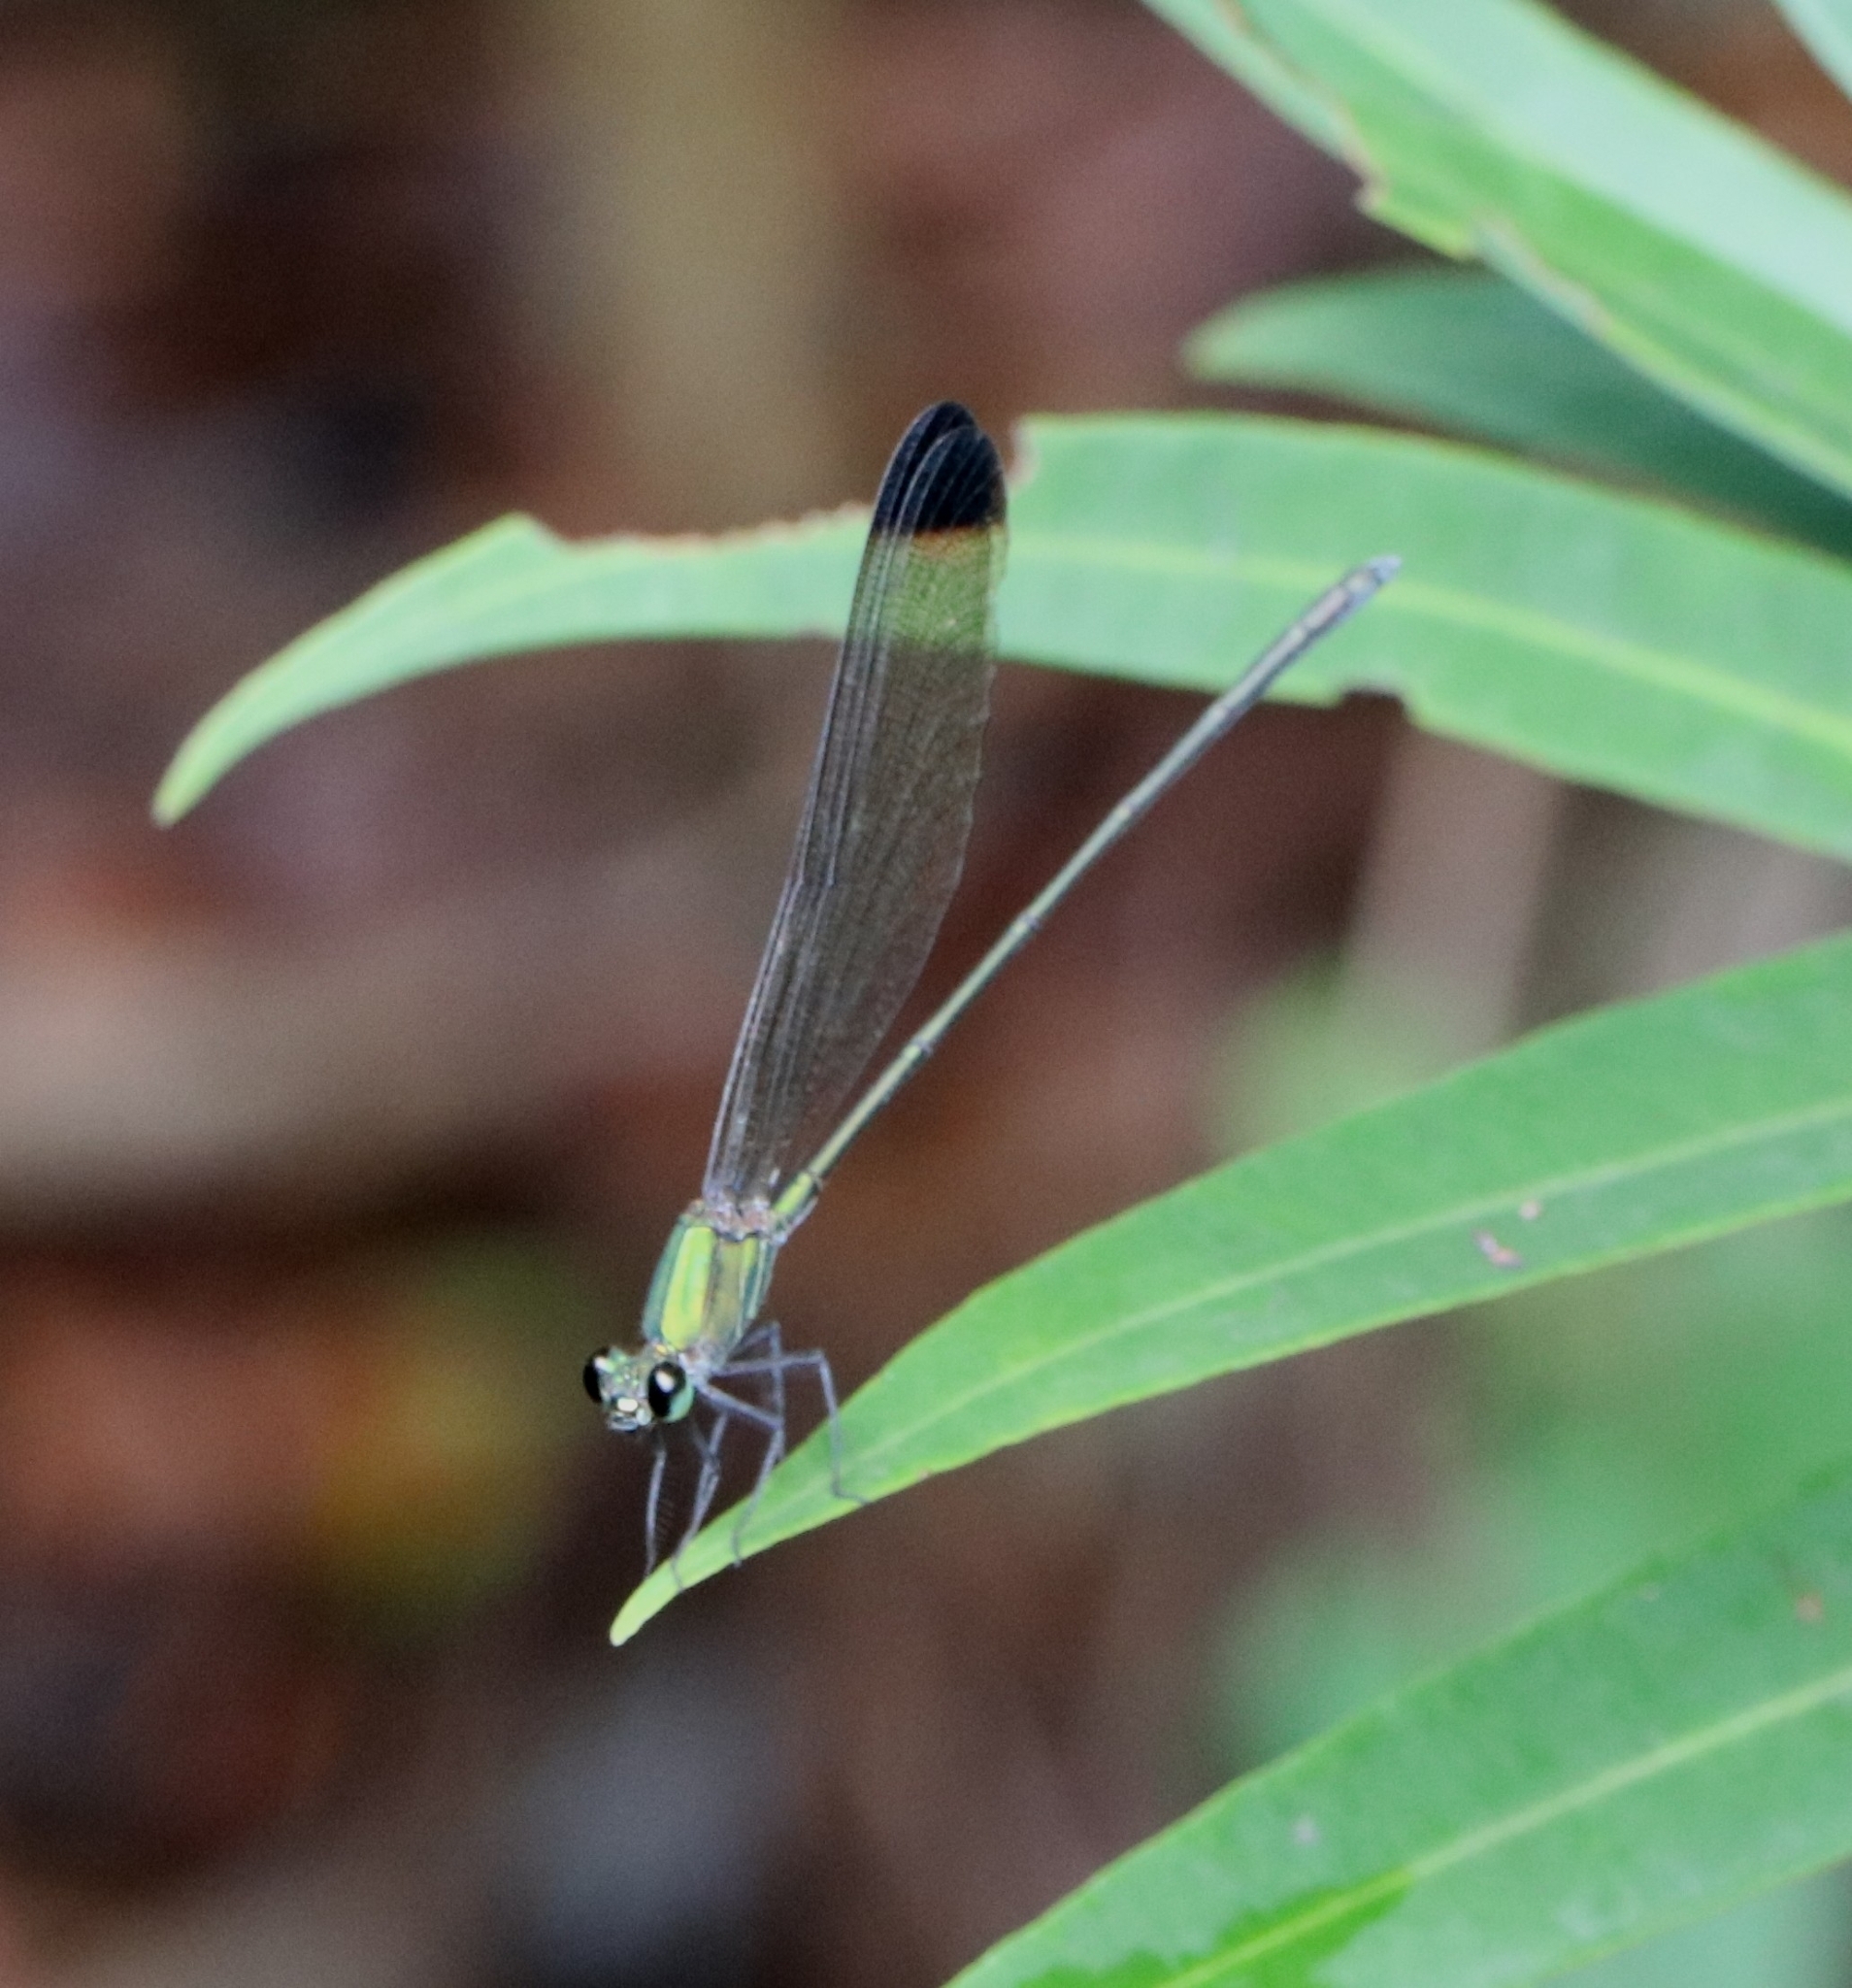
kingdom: Animalia
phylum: Arthropoda
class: Insecta
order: Odonata
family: Calopterygidae
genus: Vestalis
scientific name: Vestalis apicalis
